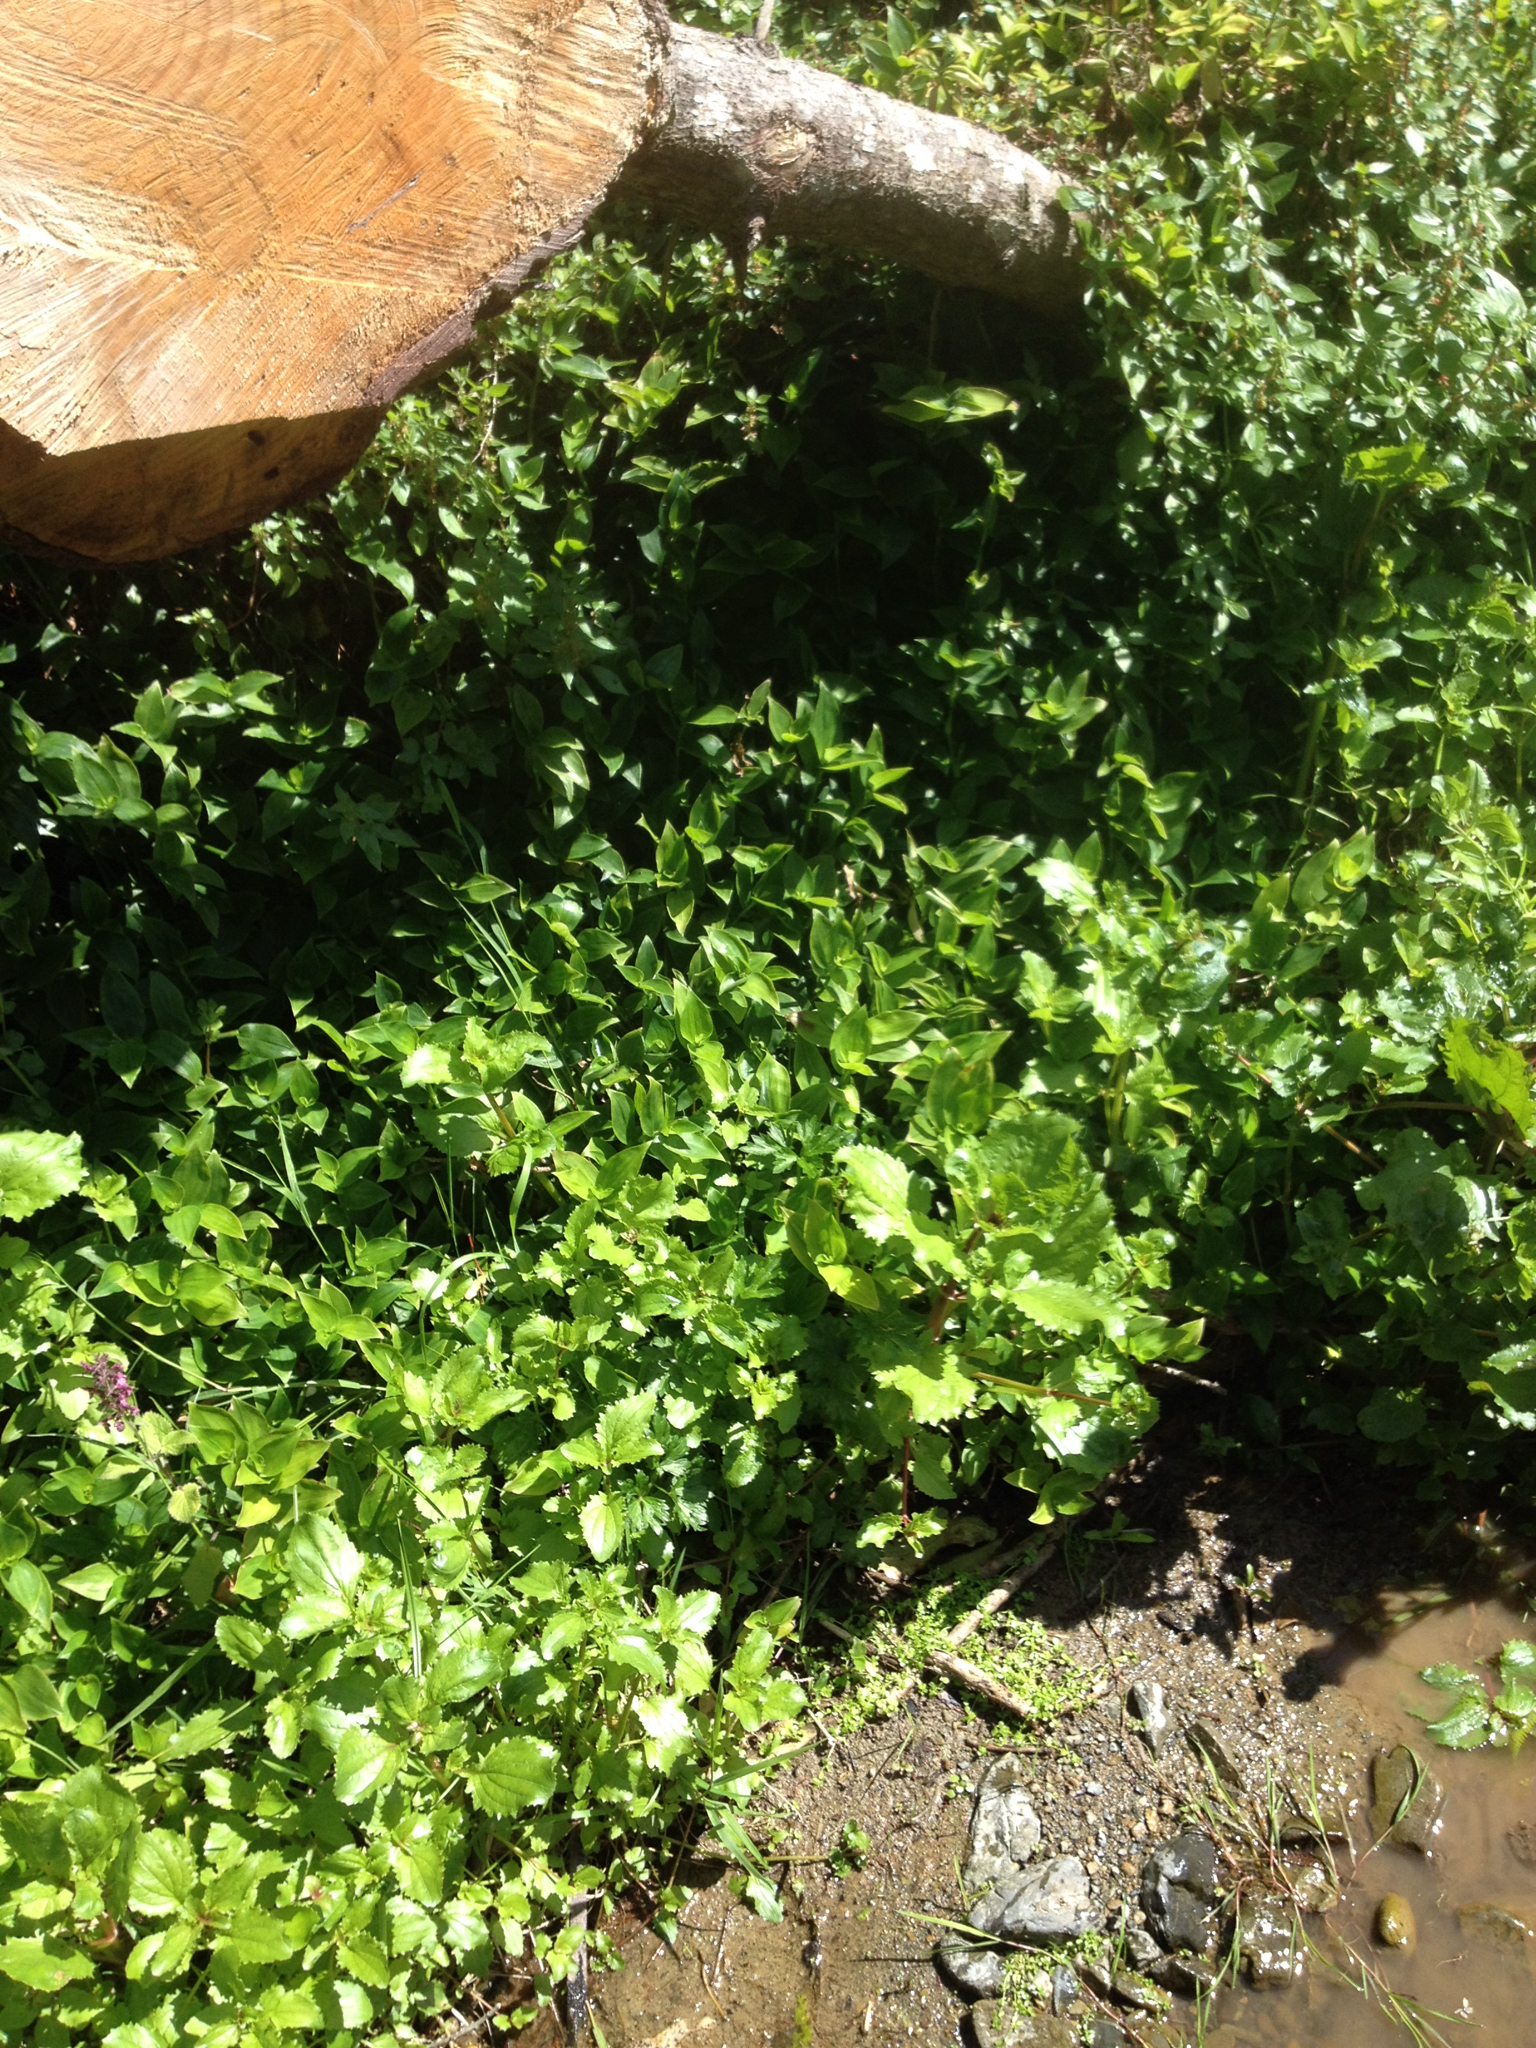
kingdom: Plantae
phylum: Tracheophyta
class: Liliopsida
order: Commelinales
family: Commelinaceae
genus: Tradescantia
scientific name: Tradescantia fluminensis
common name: Wandering-jew
